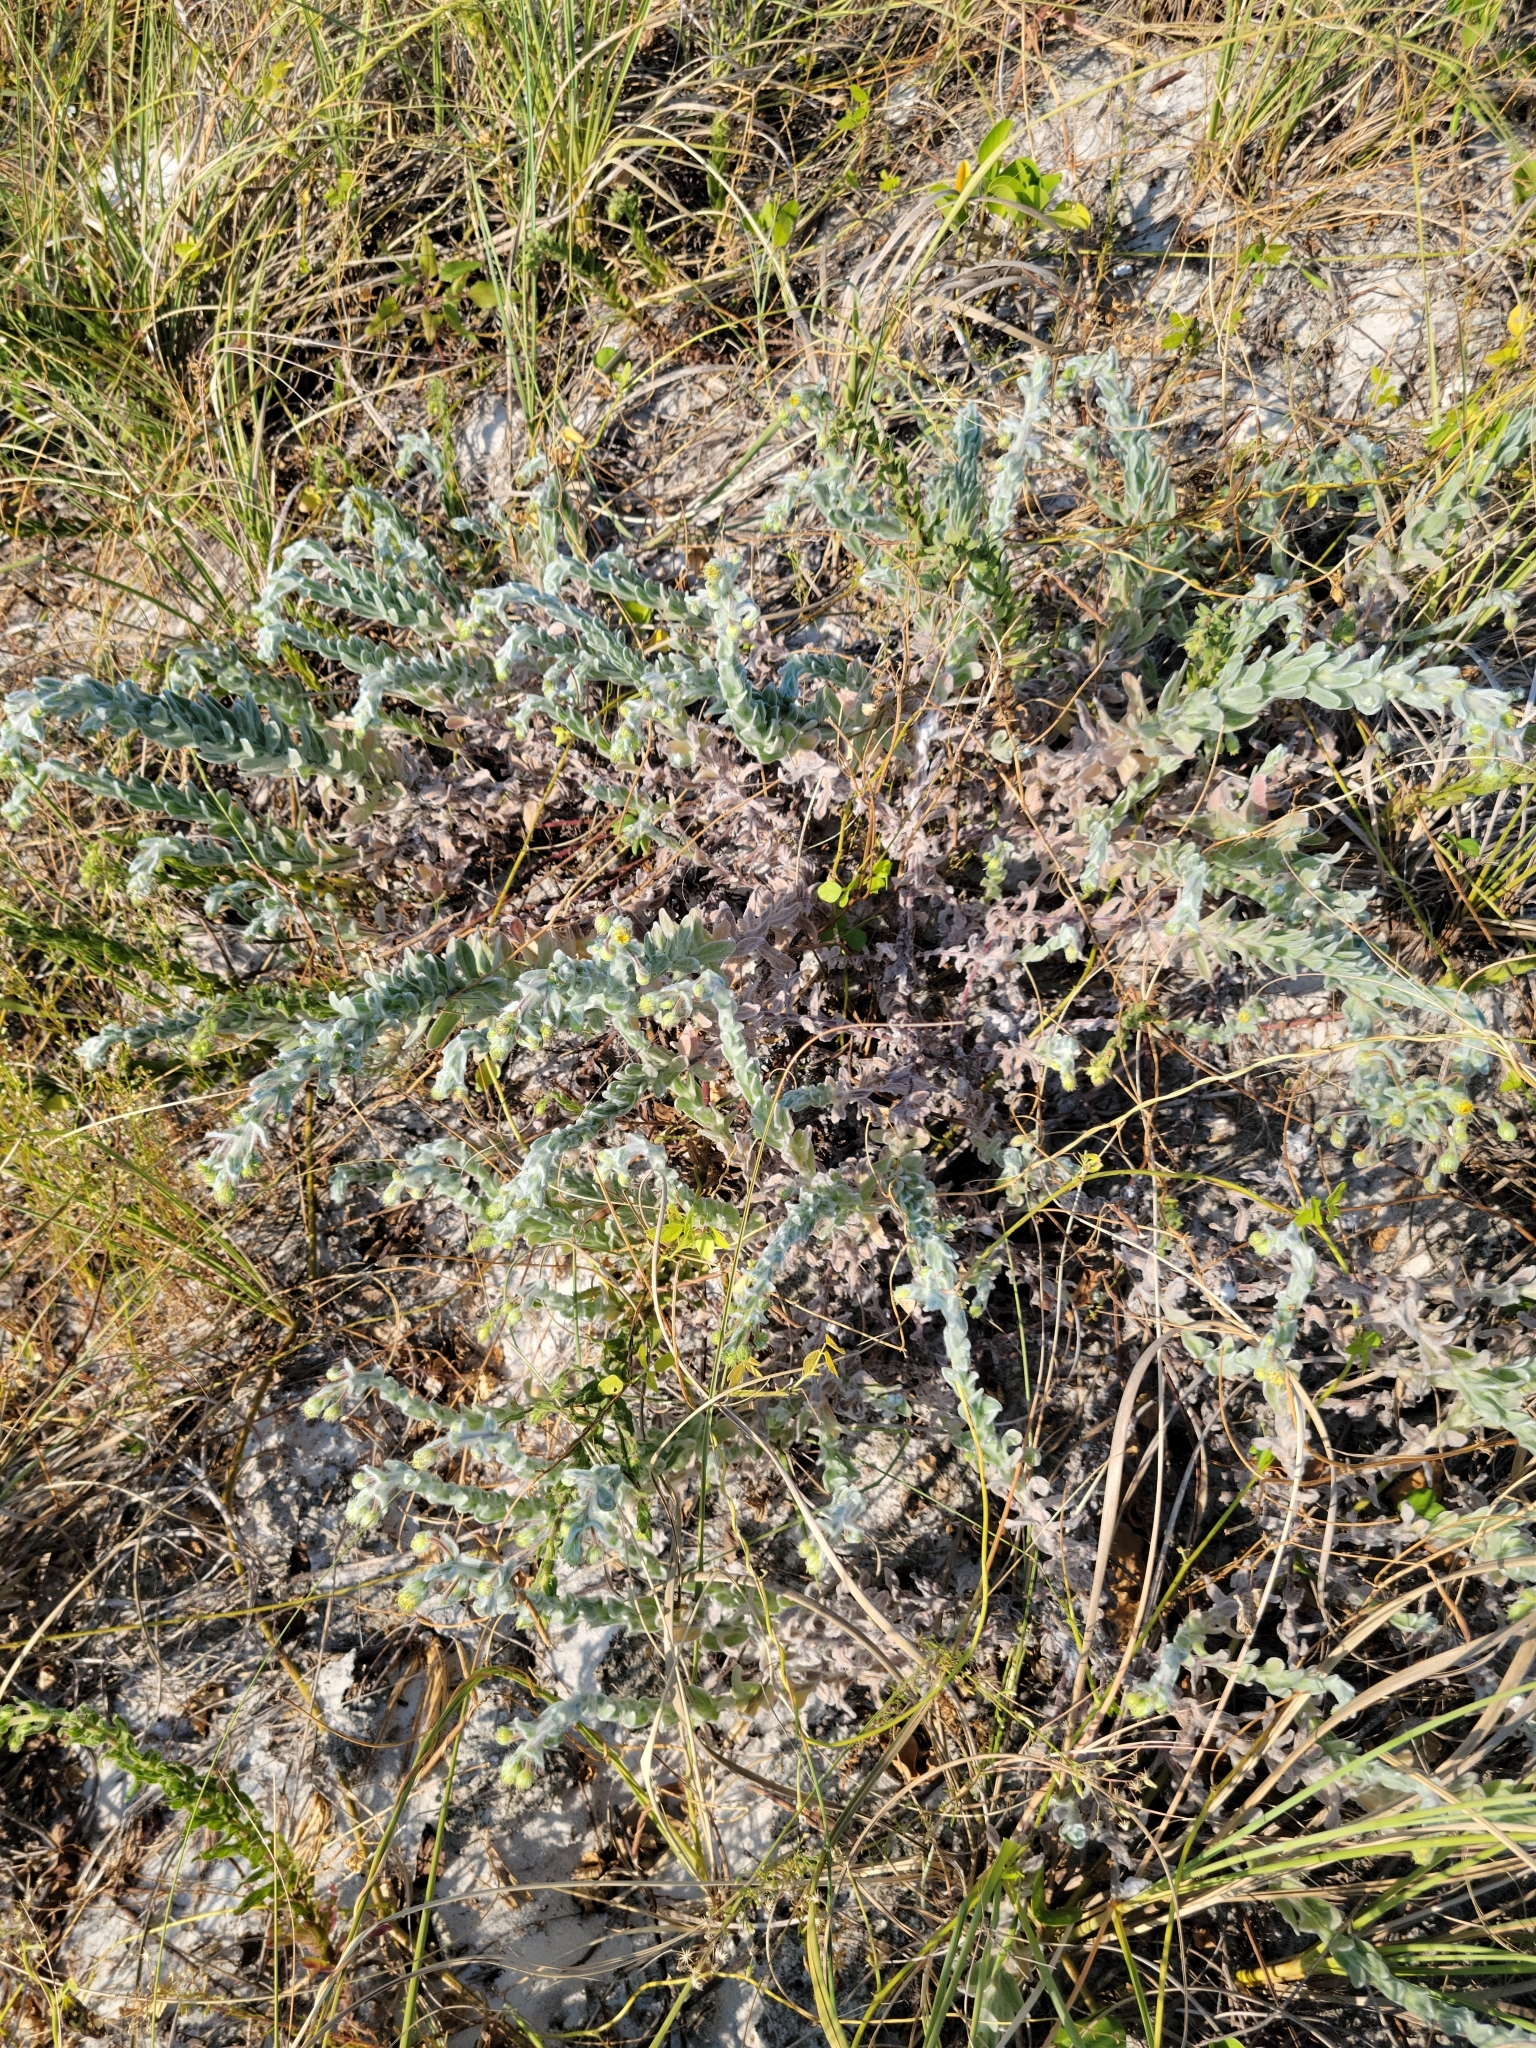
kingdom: Plantae
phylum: Tracheophyta
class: Magnoliopsida
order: Asterales
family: Asteraceae
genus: Chrysopsis
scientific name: Chrysopsis godfreyi
